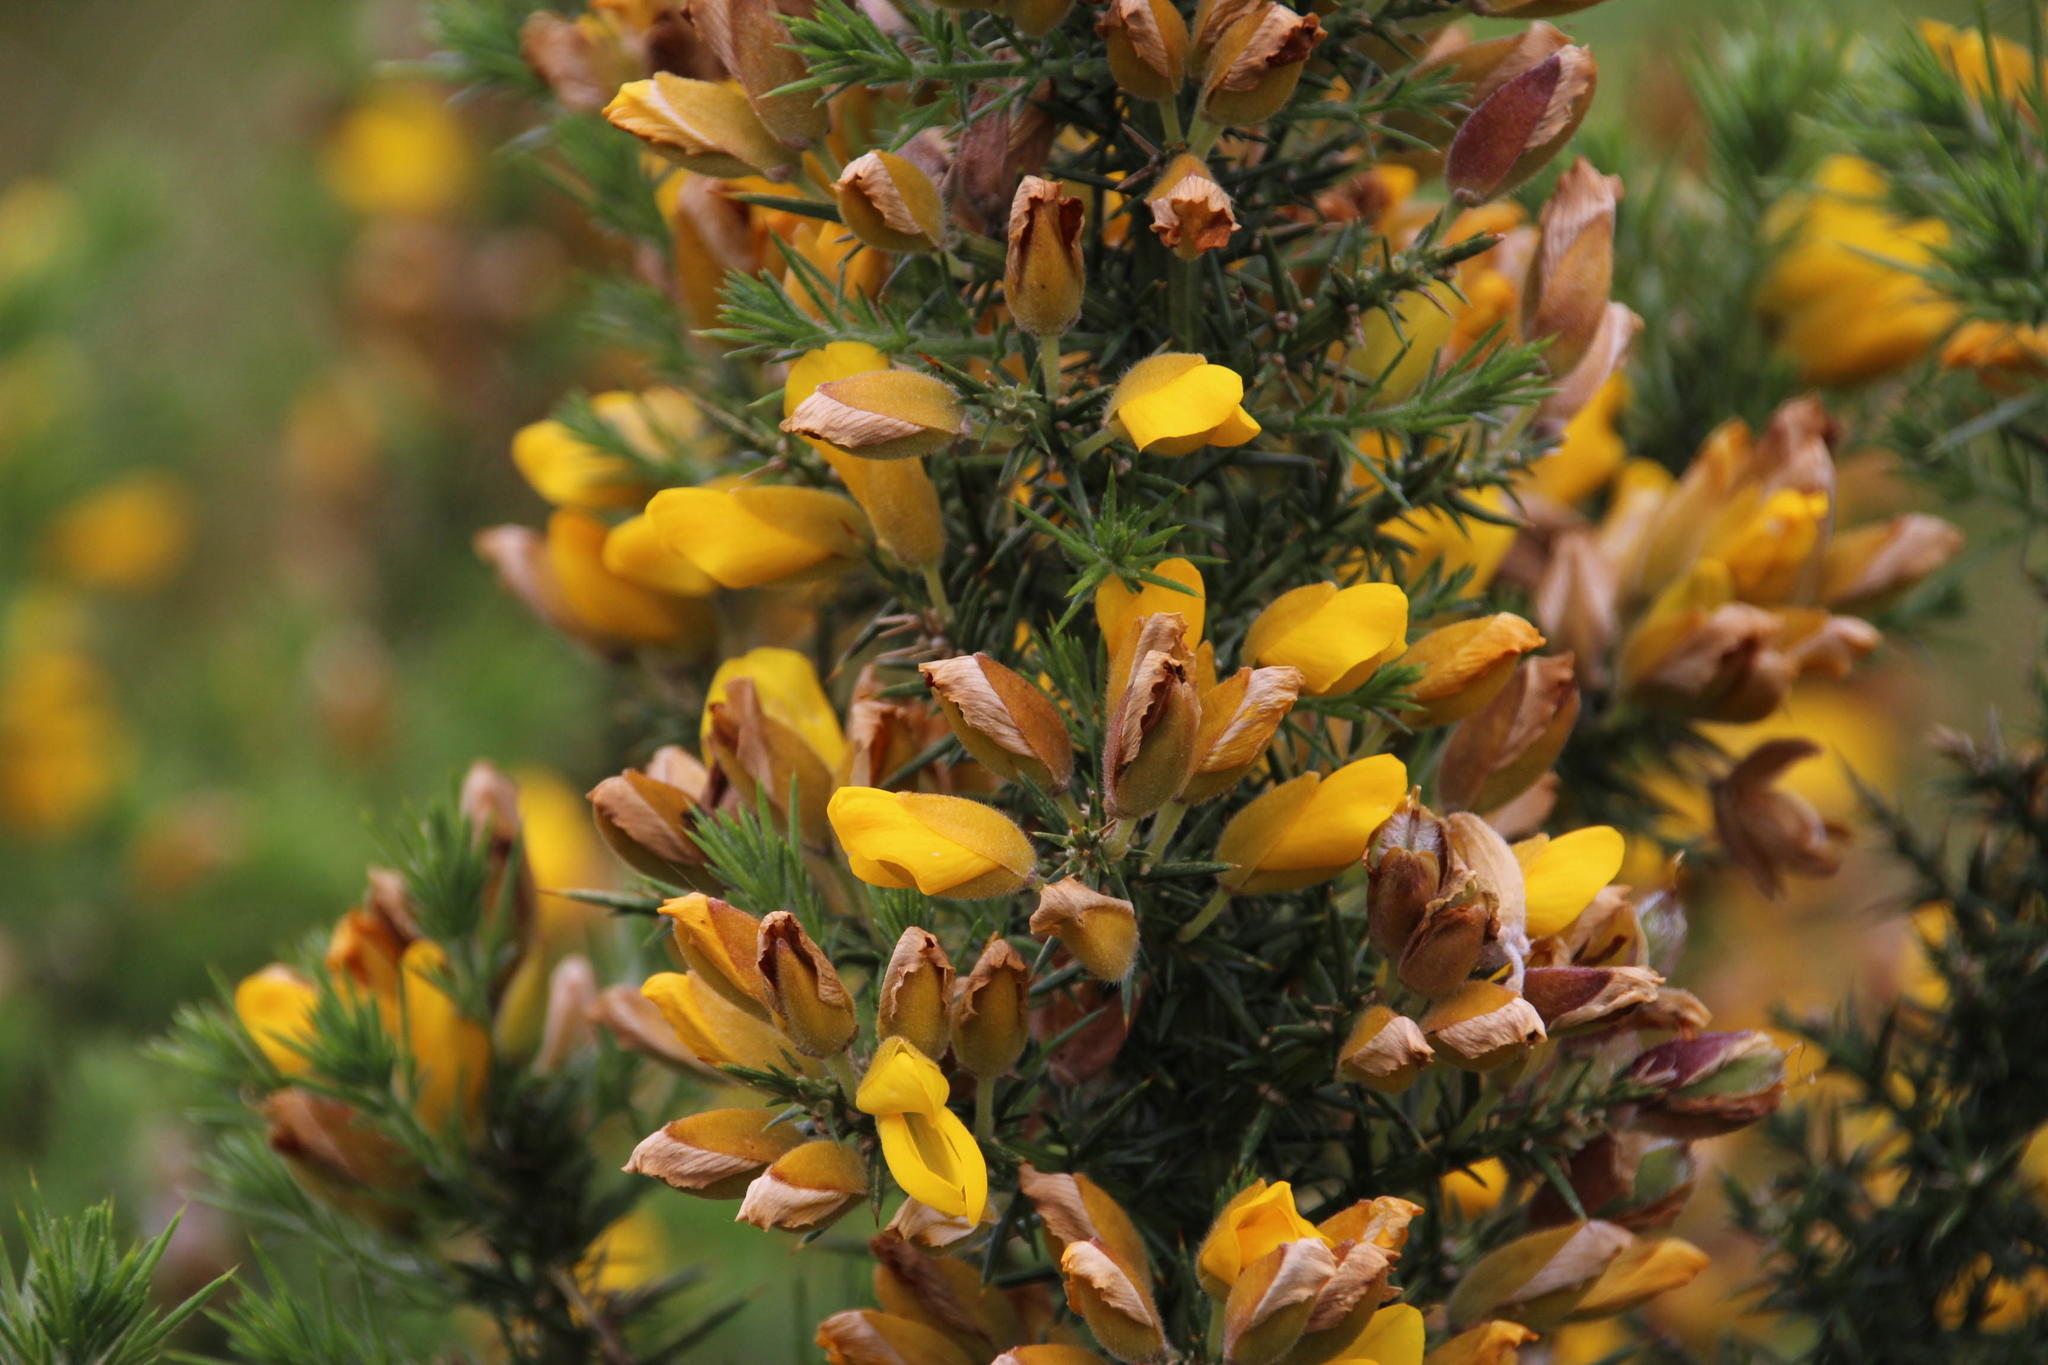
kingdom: Plantae
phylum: Tracheophyta
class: Magnoliopsida
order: Fabales
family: Fabaceae
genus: Ulex
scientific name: Ulex europaeus
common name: Common gorse
